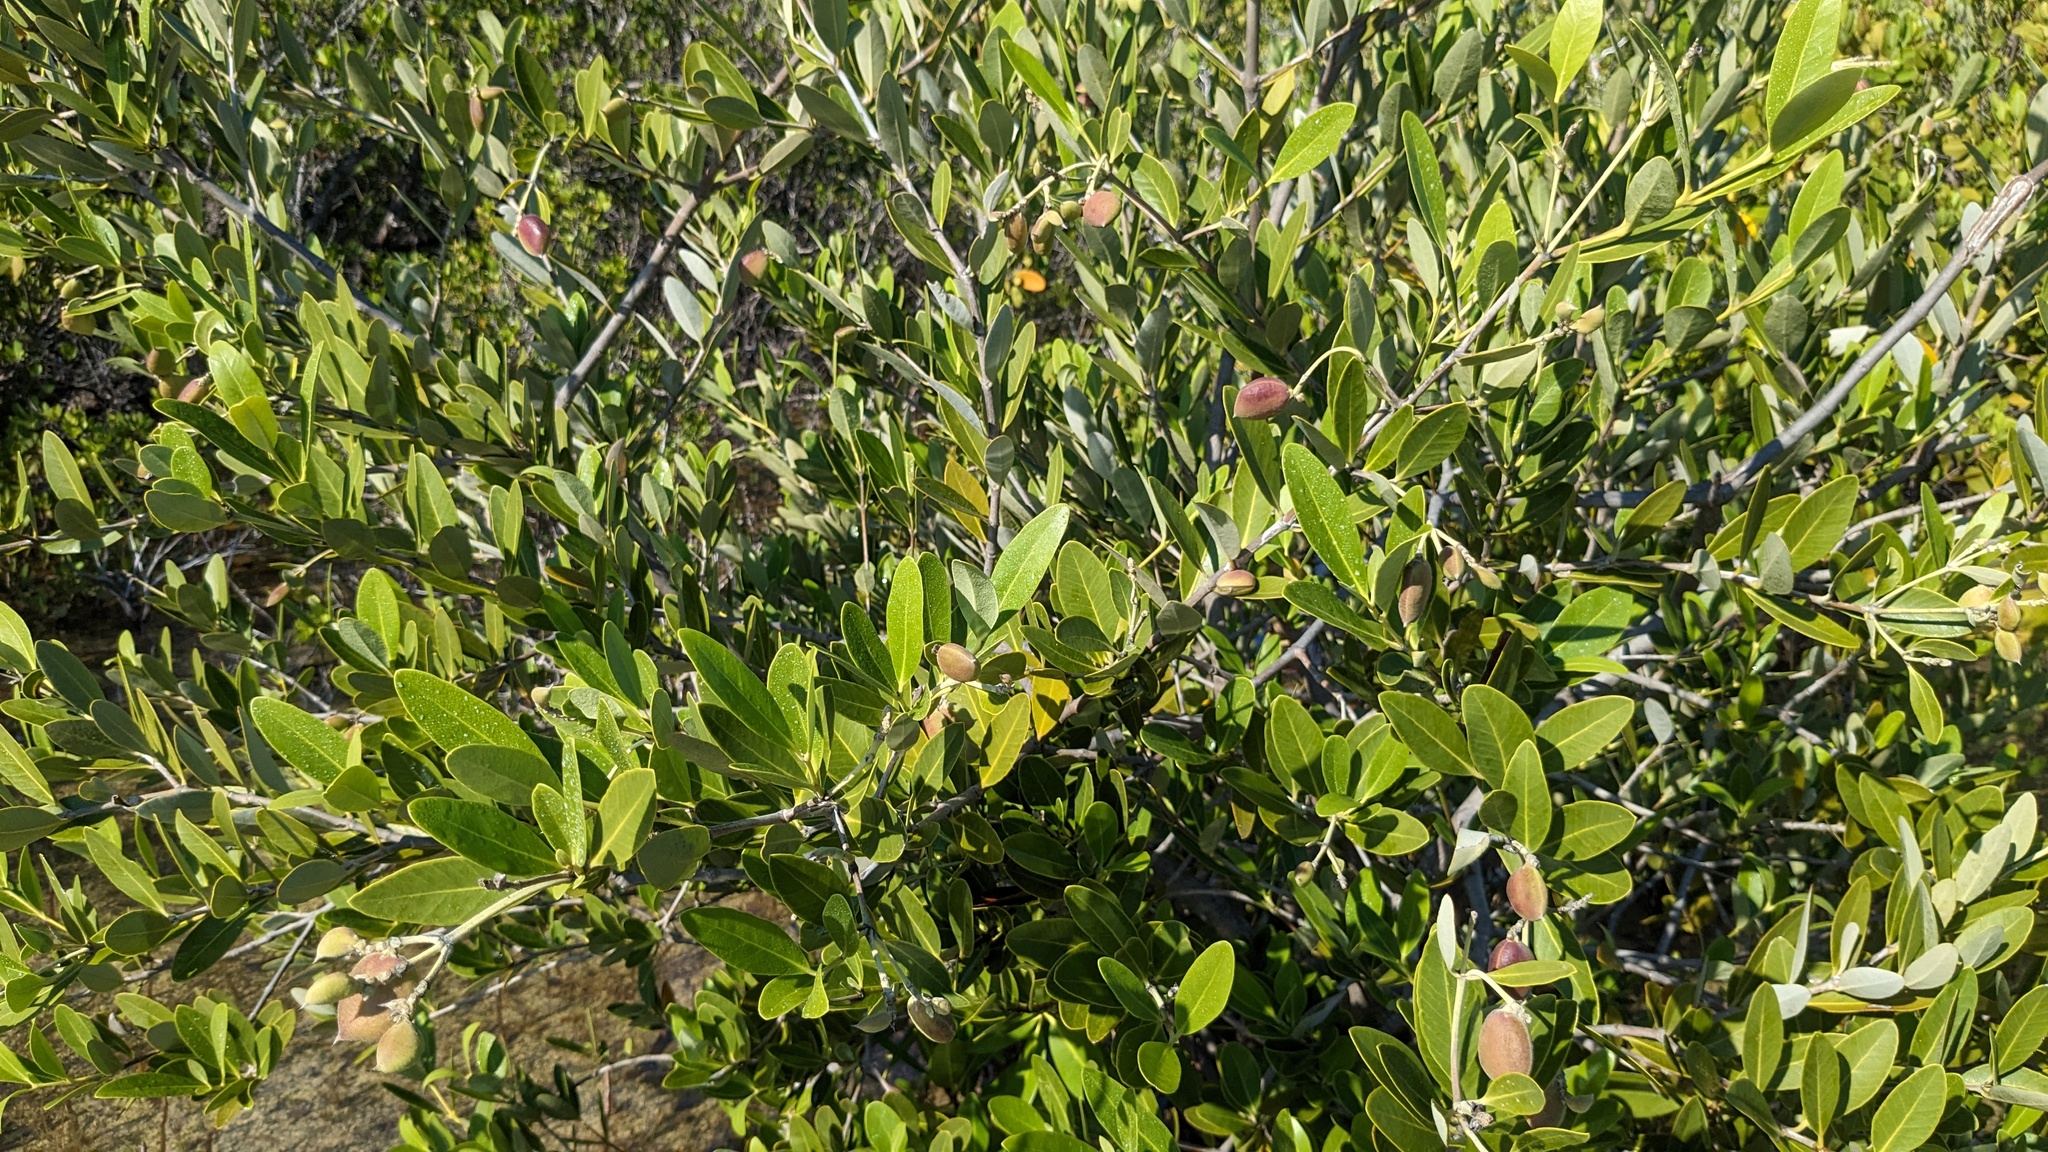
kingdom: Plantae
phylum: Tracheophyta
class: Magnoliopsida
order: Lamiales
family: Acanthaceae
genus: Avicennia
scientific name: Avicennia germinans
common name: Black mangrove
